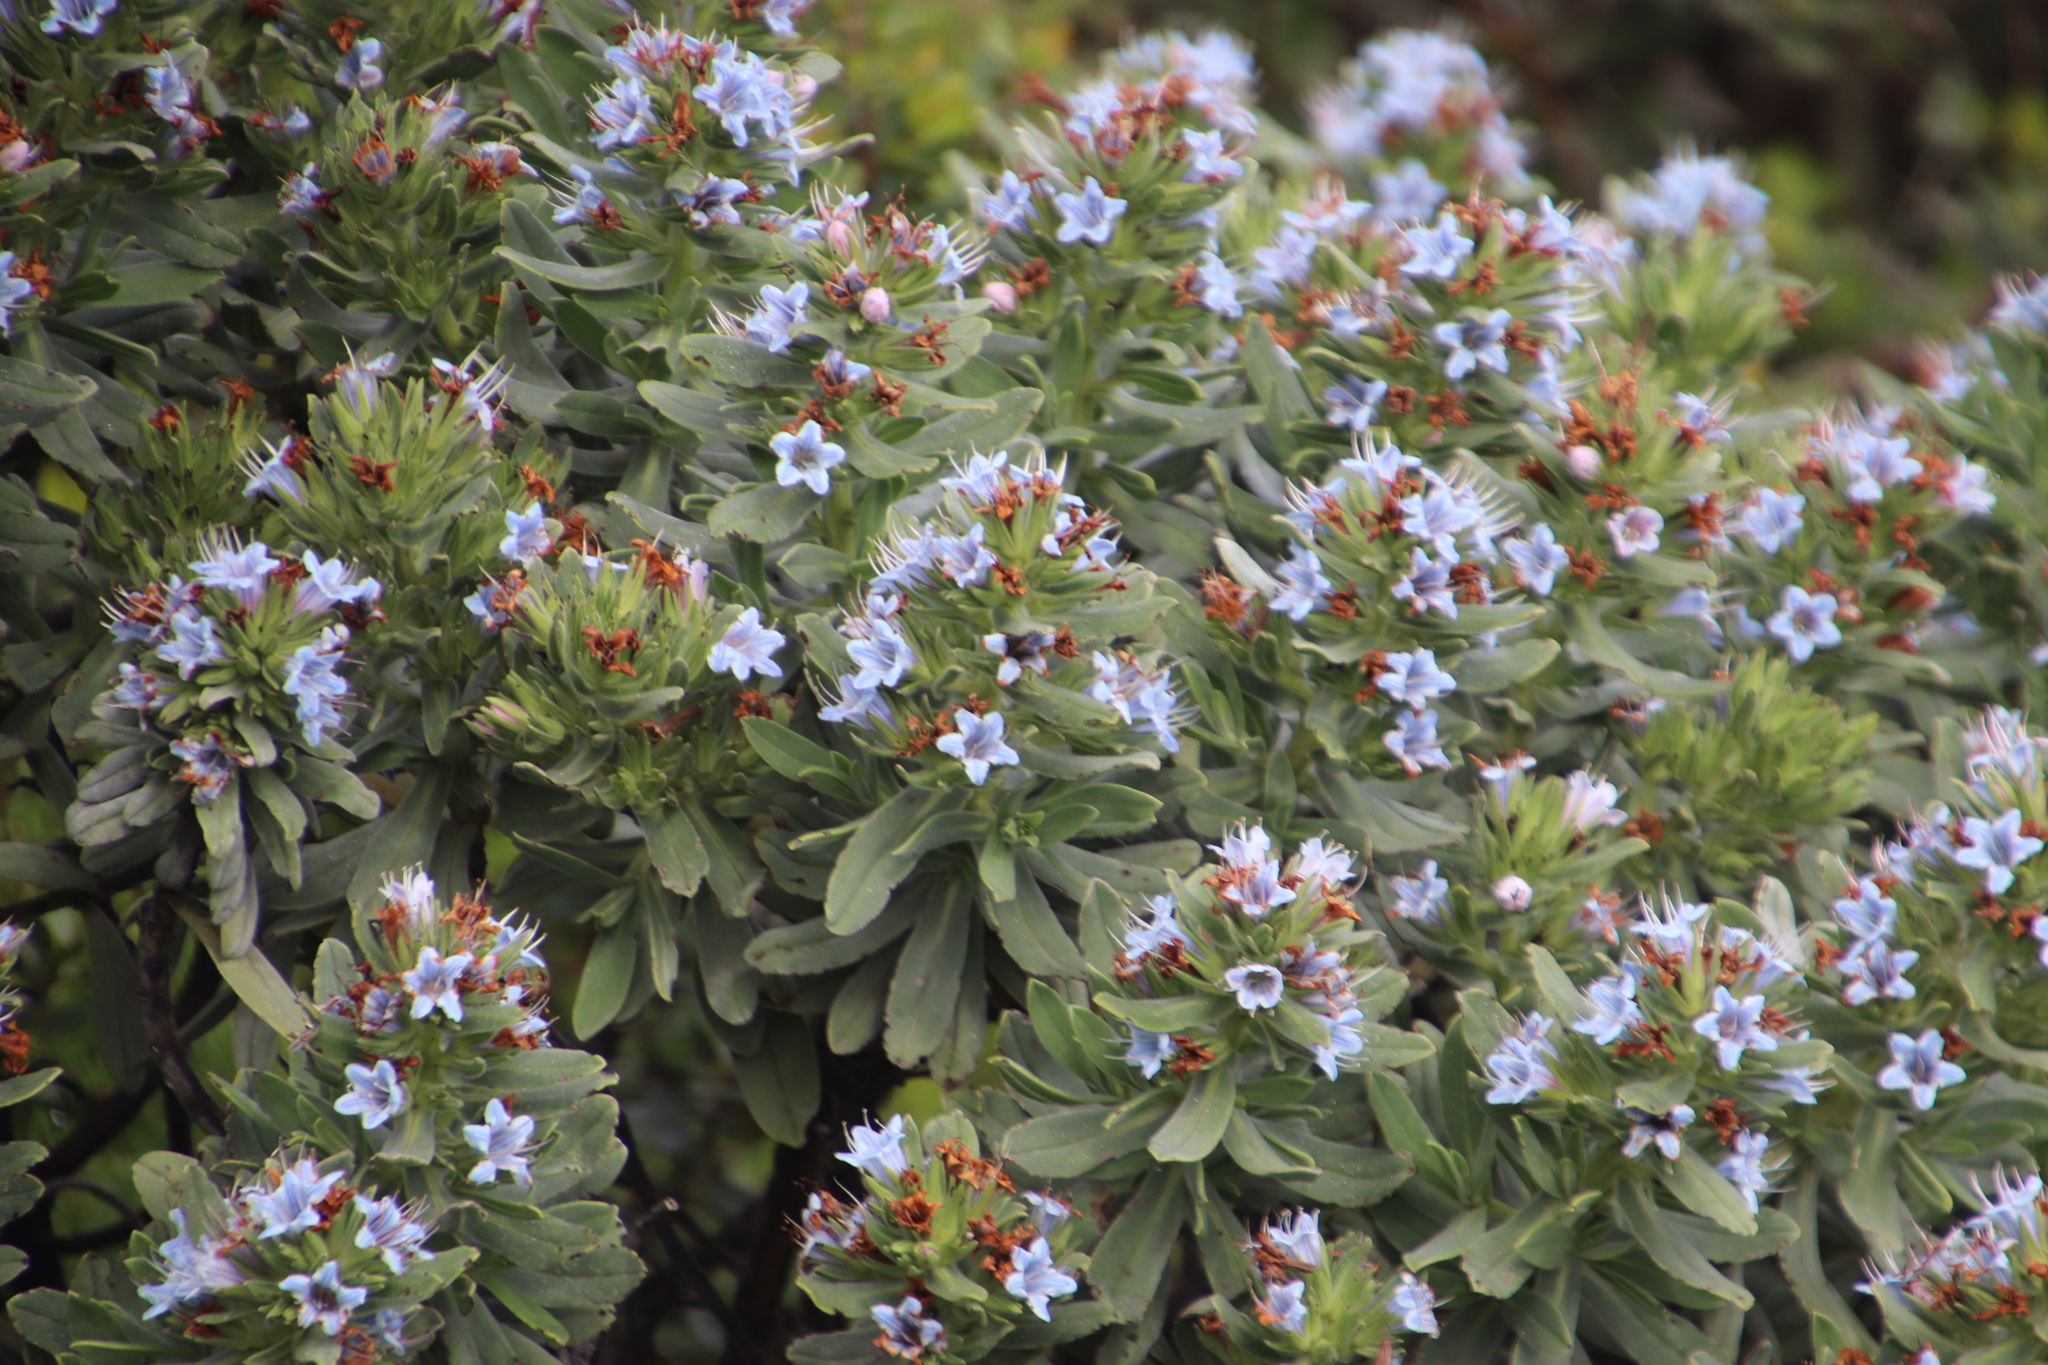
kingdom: Plantae
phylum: Tracheophyta
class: Magnoliopsida
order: Boraginales
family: Boraginaceae
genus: Lobostemon
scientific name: Lobostemon montanus
